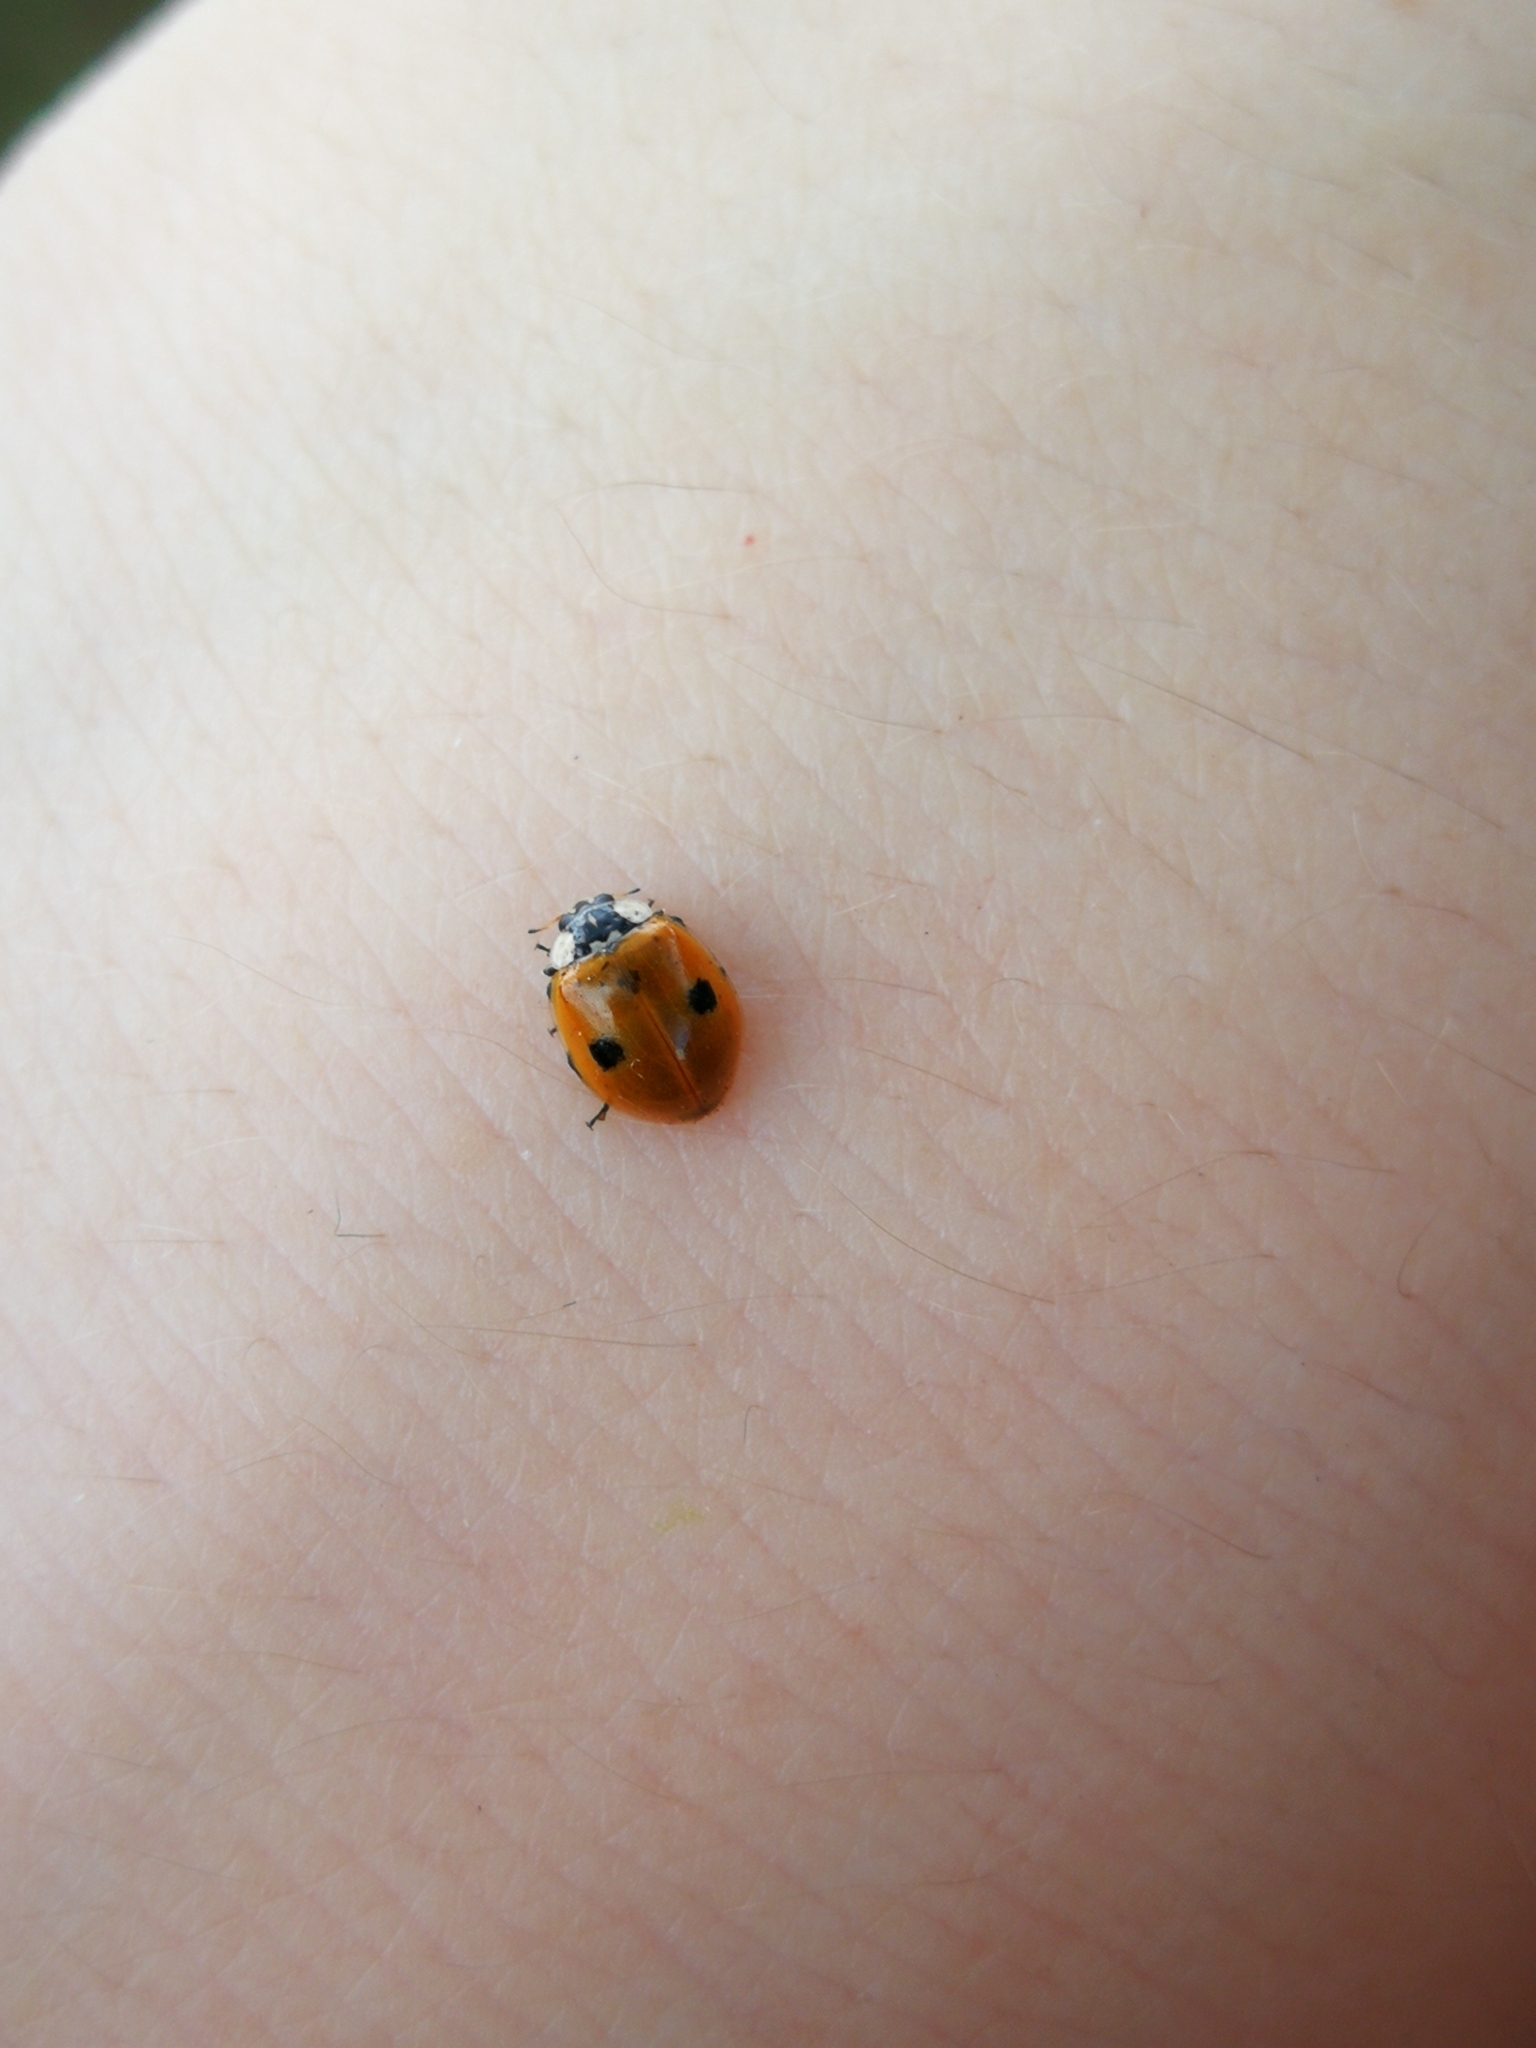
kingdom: Animalia
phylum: Arthropoda
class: Insecta
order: Coleoptera
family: Coccinellidae
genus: Adalia
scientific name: Adalia bipunctata
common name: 2-spot ladybird
